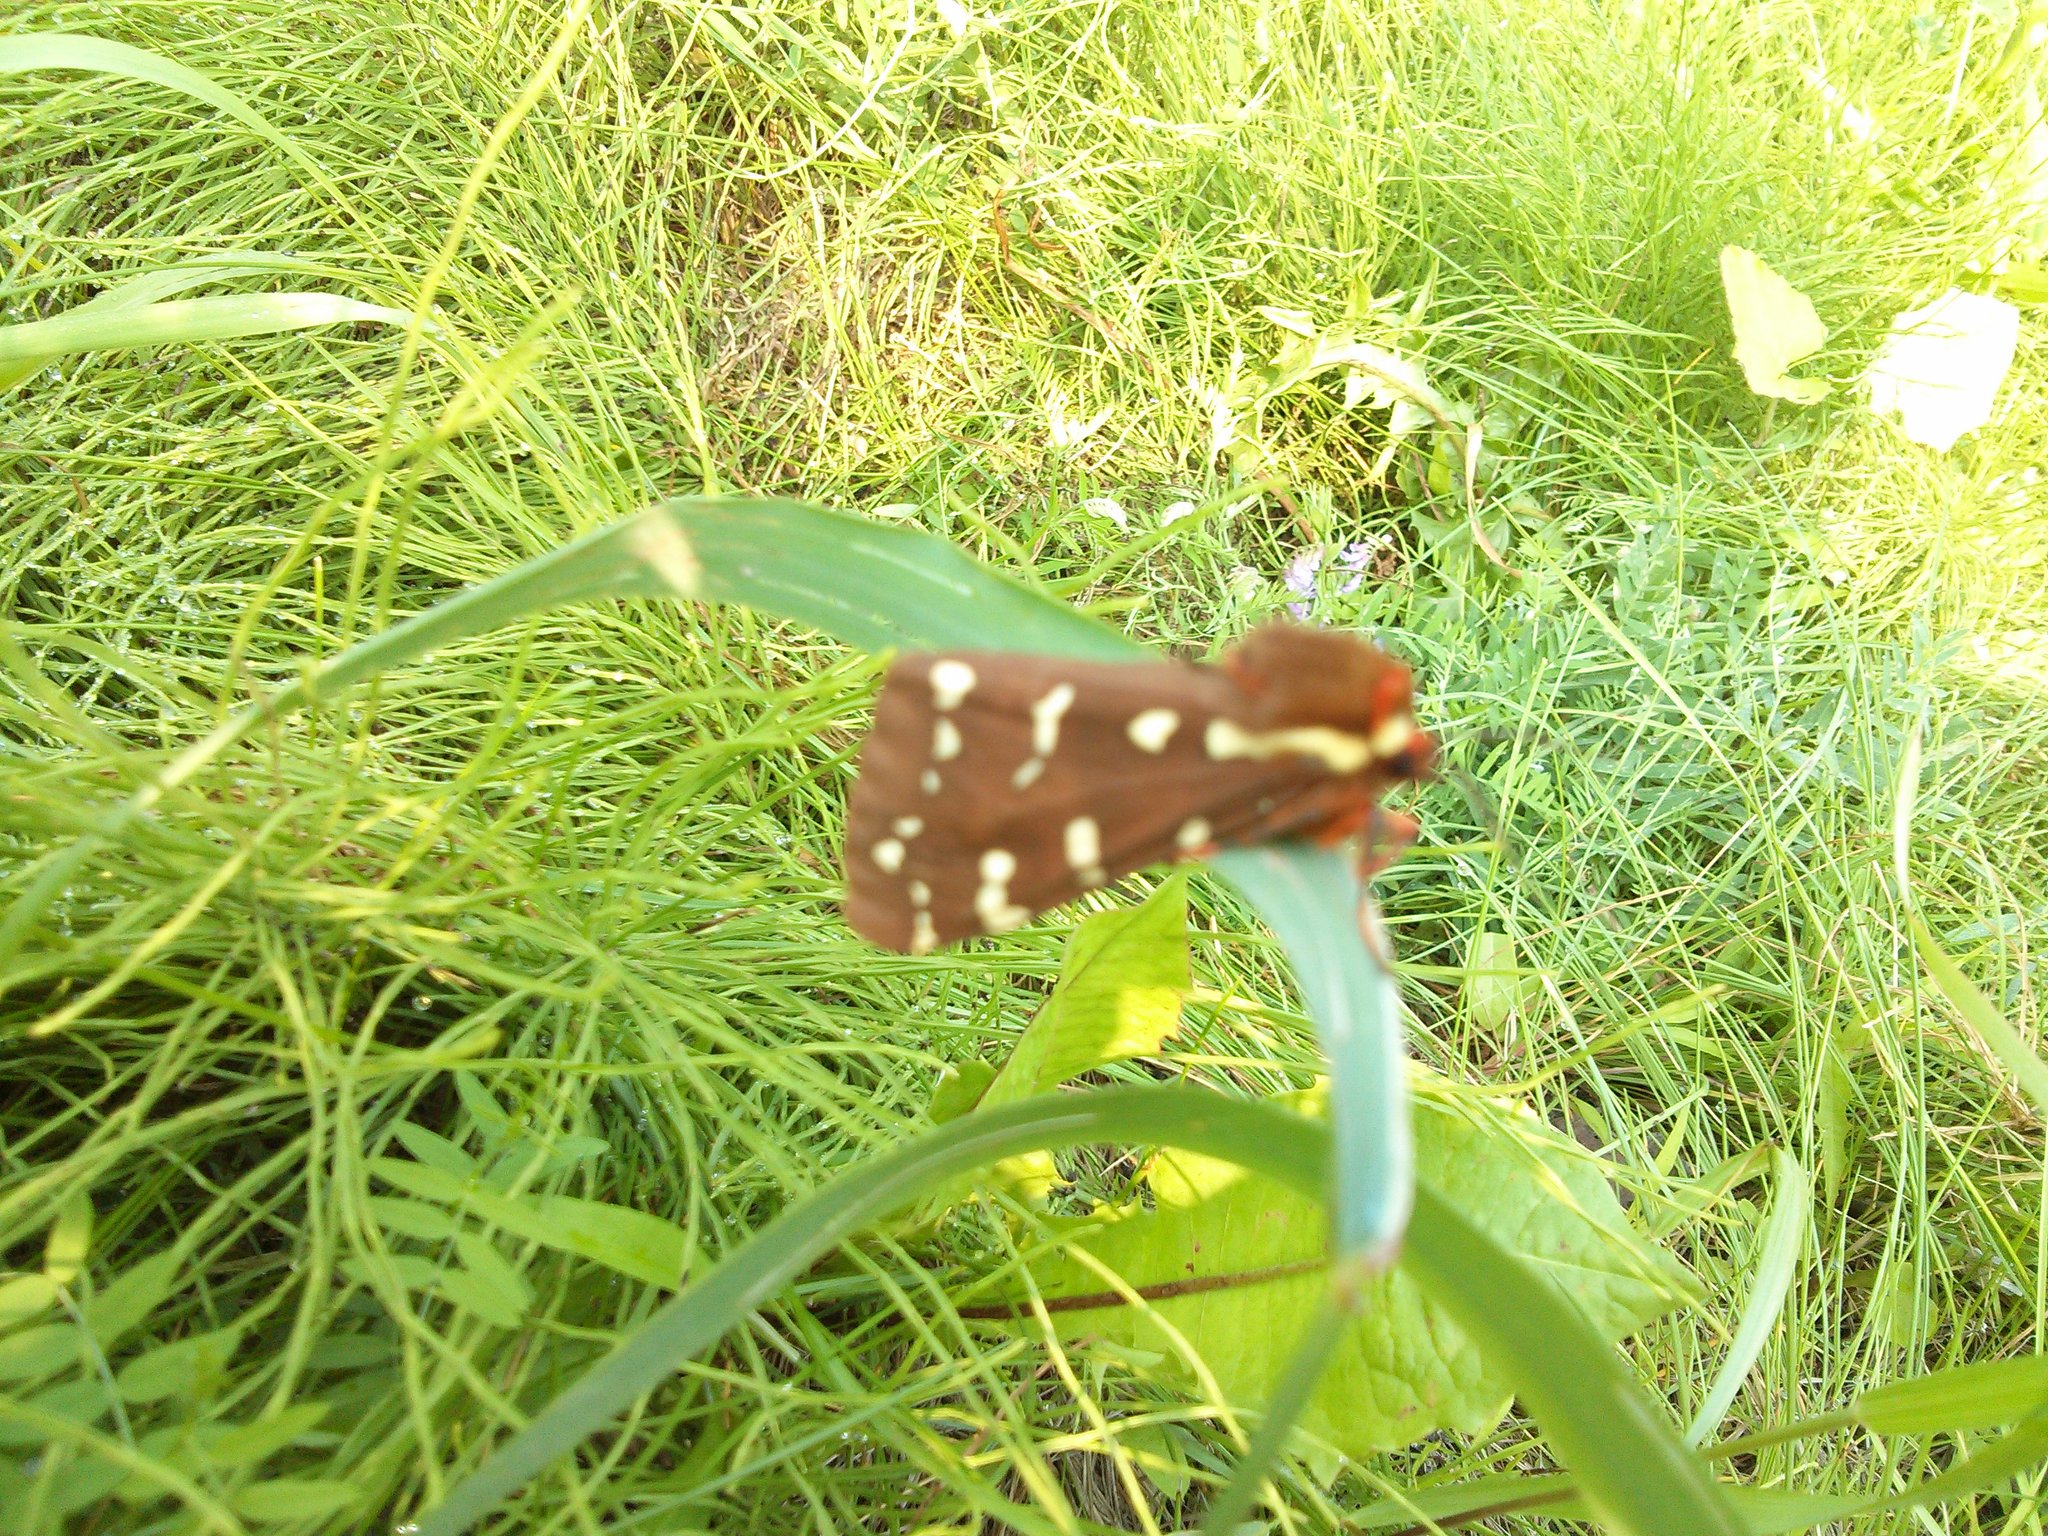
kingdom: Animalia
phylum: Arthropoda
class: Insecta
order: Lepidoptera
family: Erebidae
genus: Arctia
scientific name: Arctia parthenos
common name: St. lawrence tiger moth
